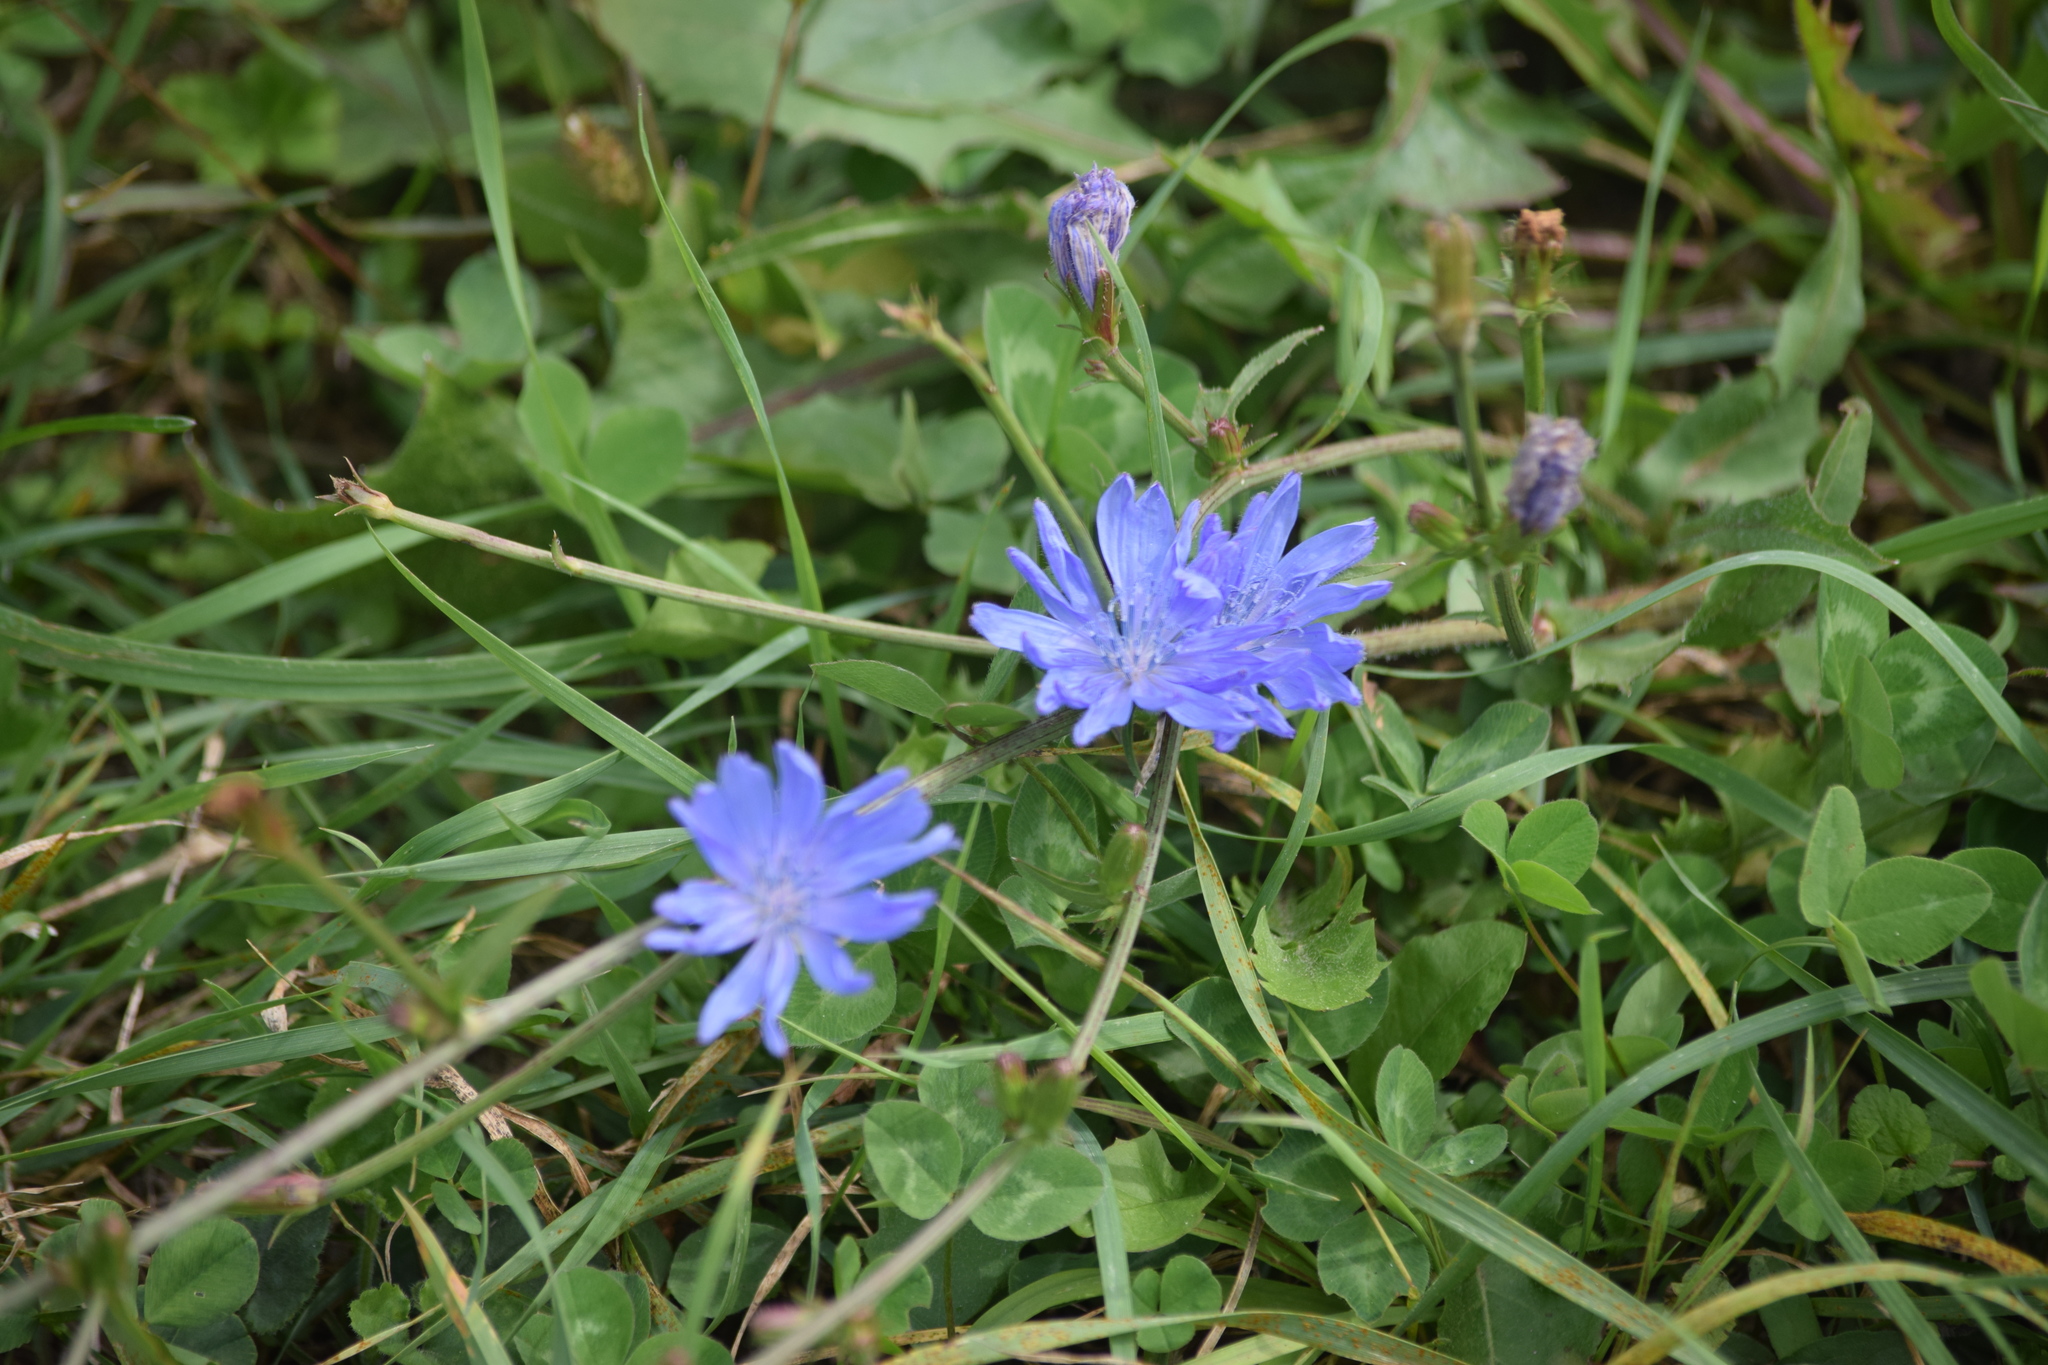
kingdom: Plantae
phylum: Tracheophyta
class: Magnoliopsida
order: Asterales
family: Asteraceae
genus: Cichorium
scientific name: Cichorium intybus
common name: Chicory
